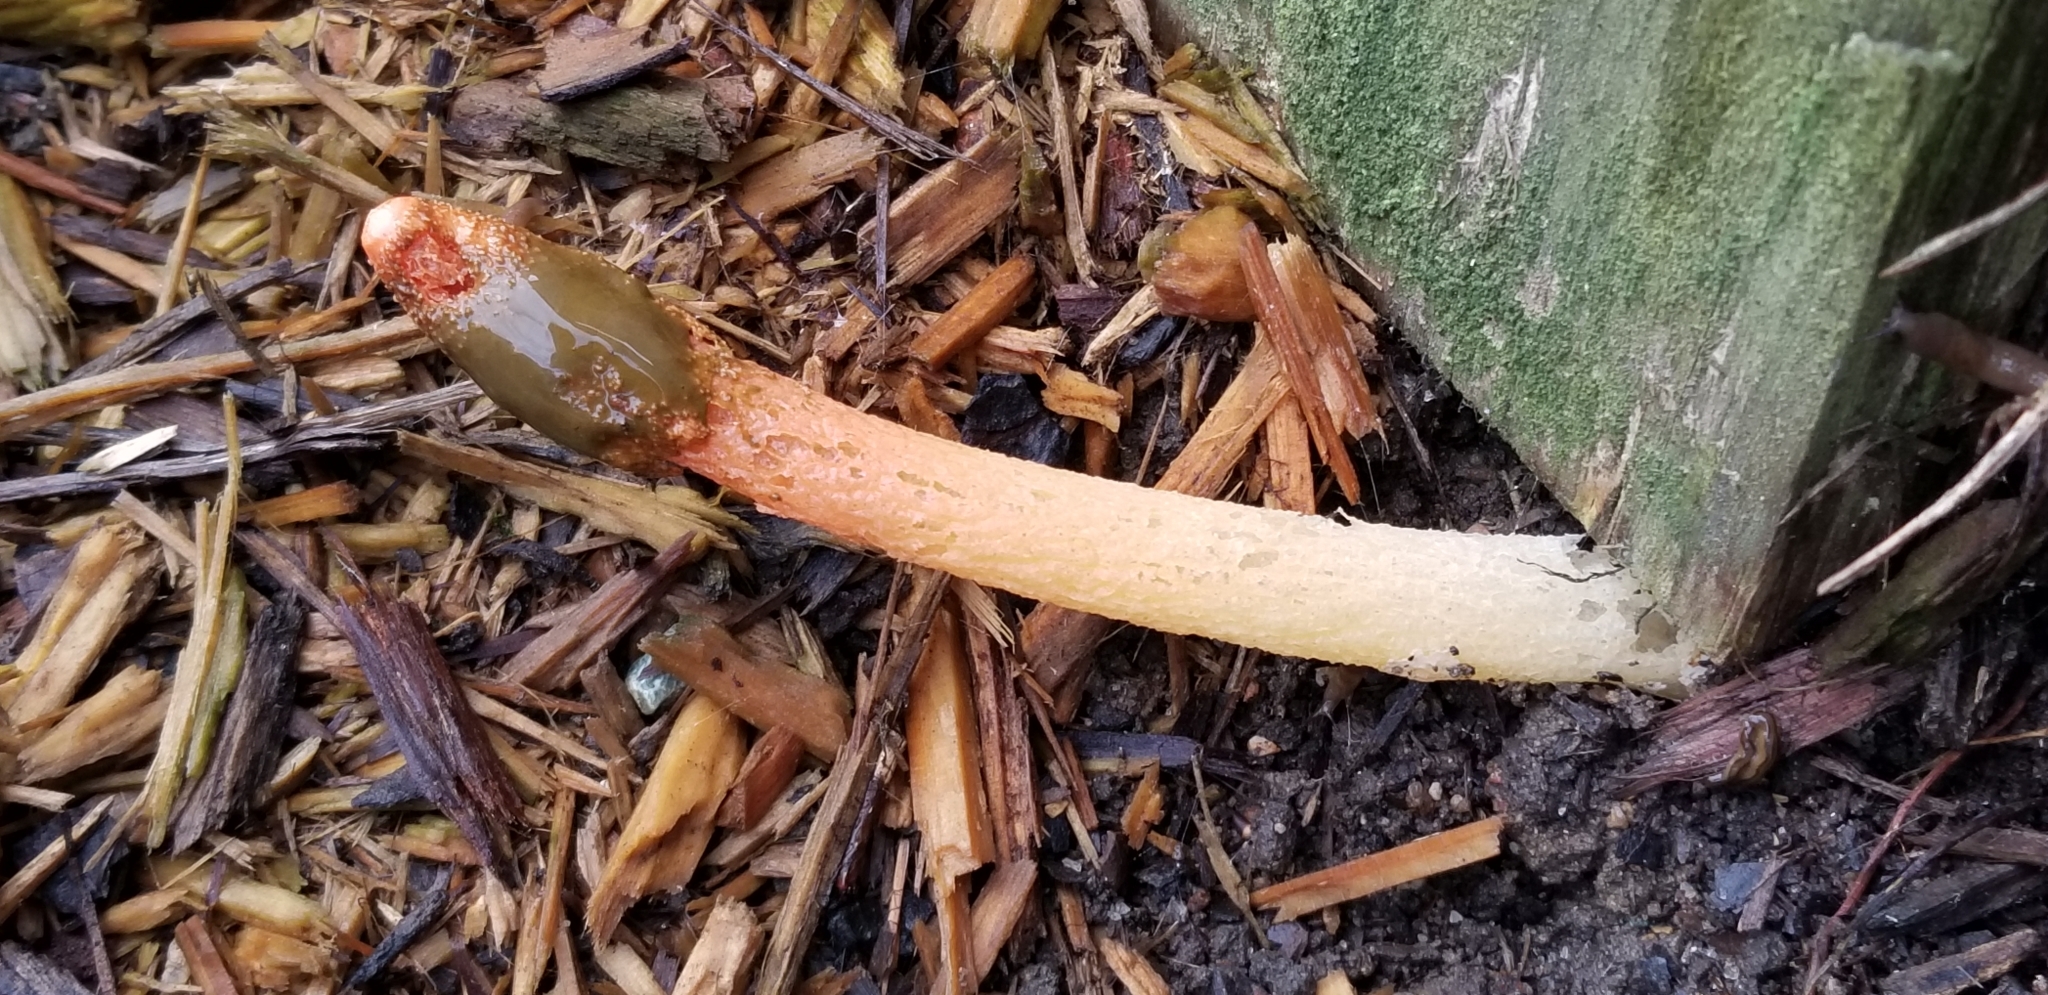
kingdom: Fungi
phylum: Basidiomycota
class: Agaricomycetes
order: Phallales
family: Phallaceae
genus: Phallus
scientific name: Phallus rugulosus
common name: Wrinkly stinkhorn
